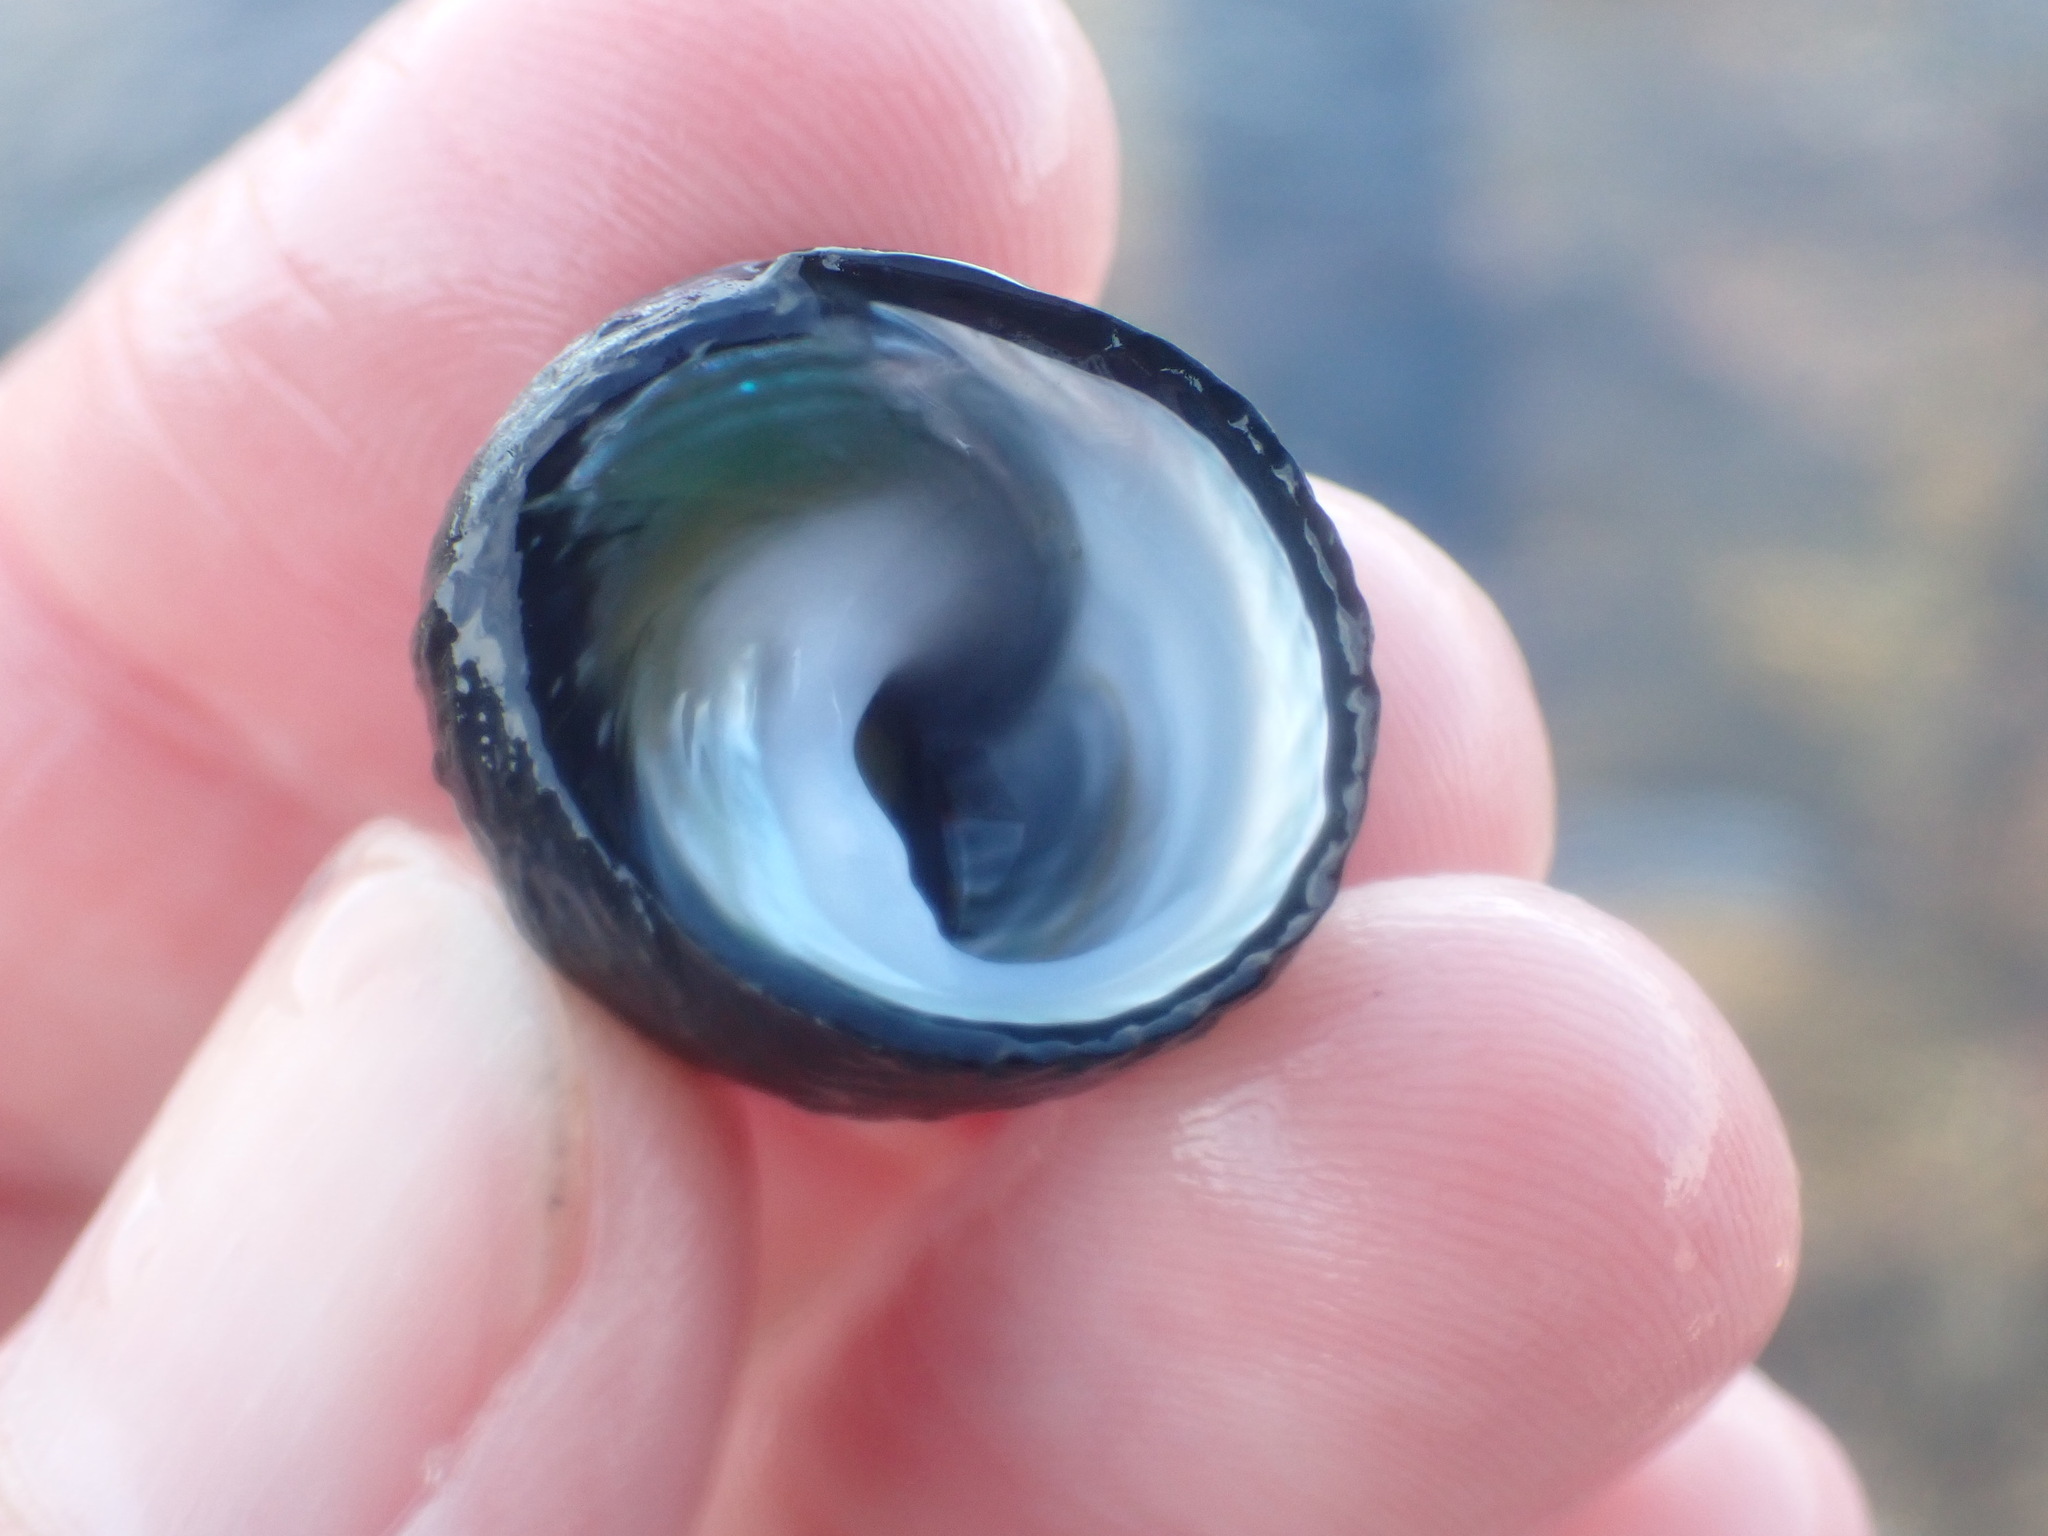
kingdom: Animalia
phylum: Mollusca
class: Gastropoda
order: Trochida
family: Trochidae
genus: Diloma
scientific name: Diloma zelandicum
